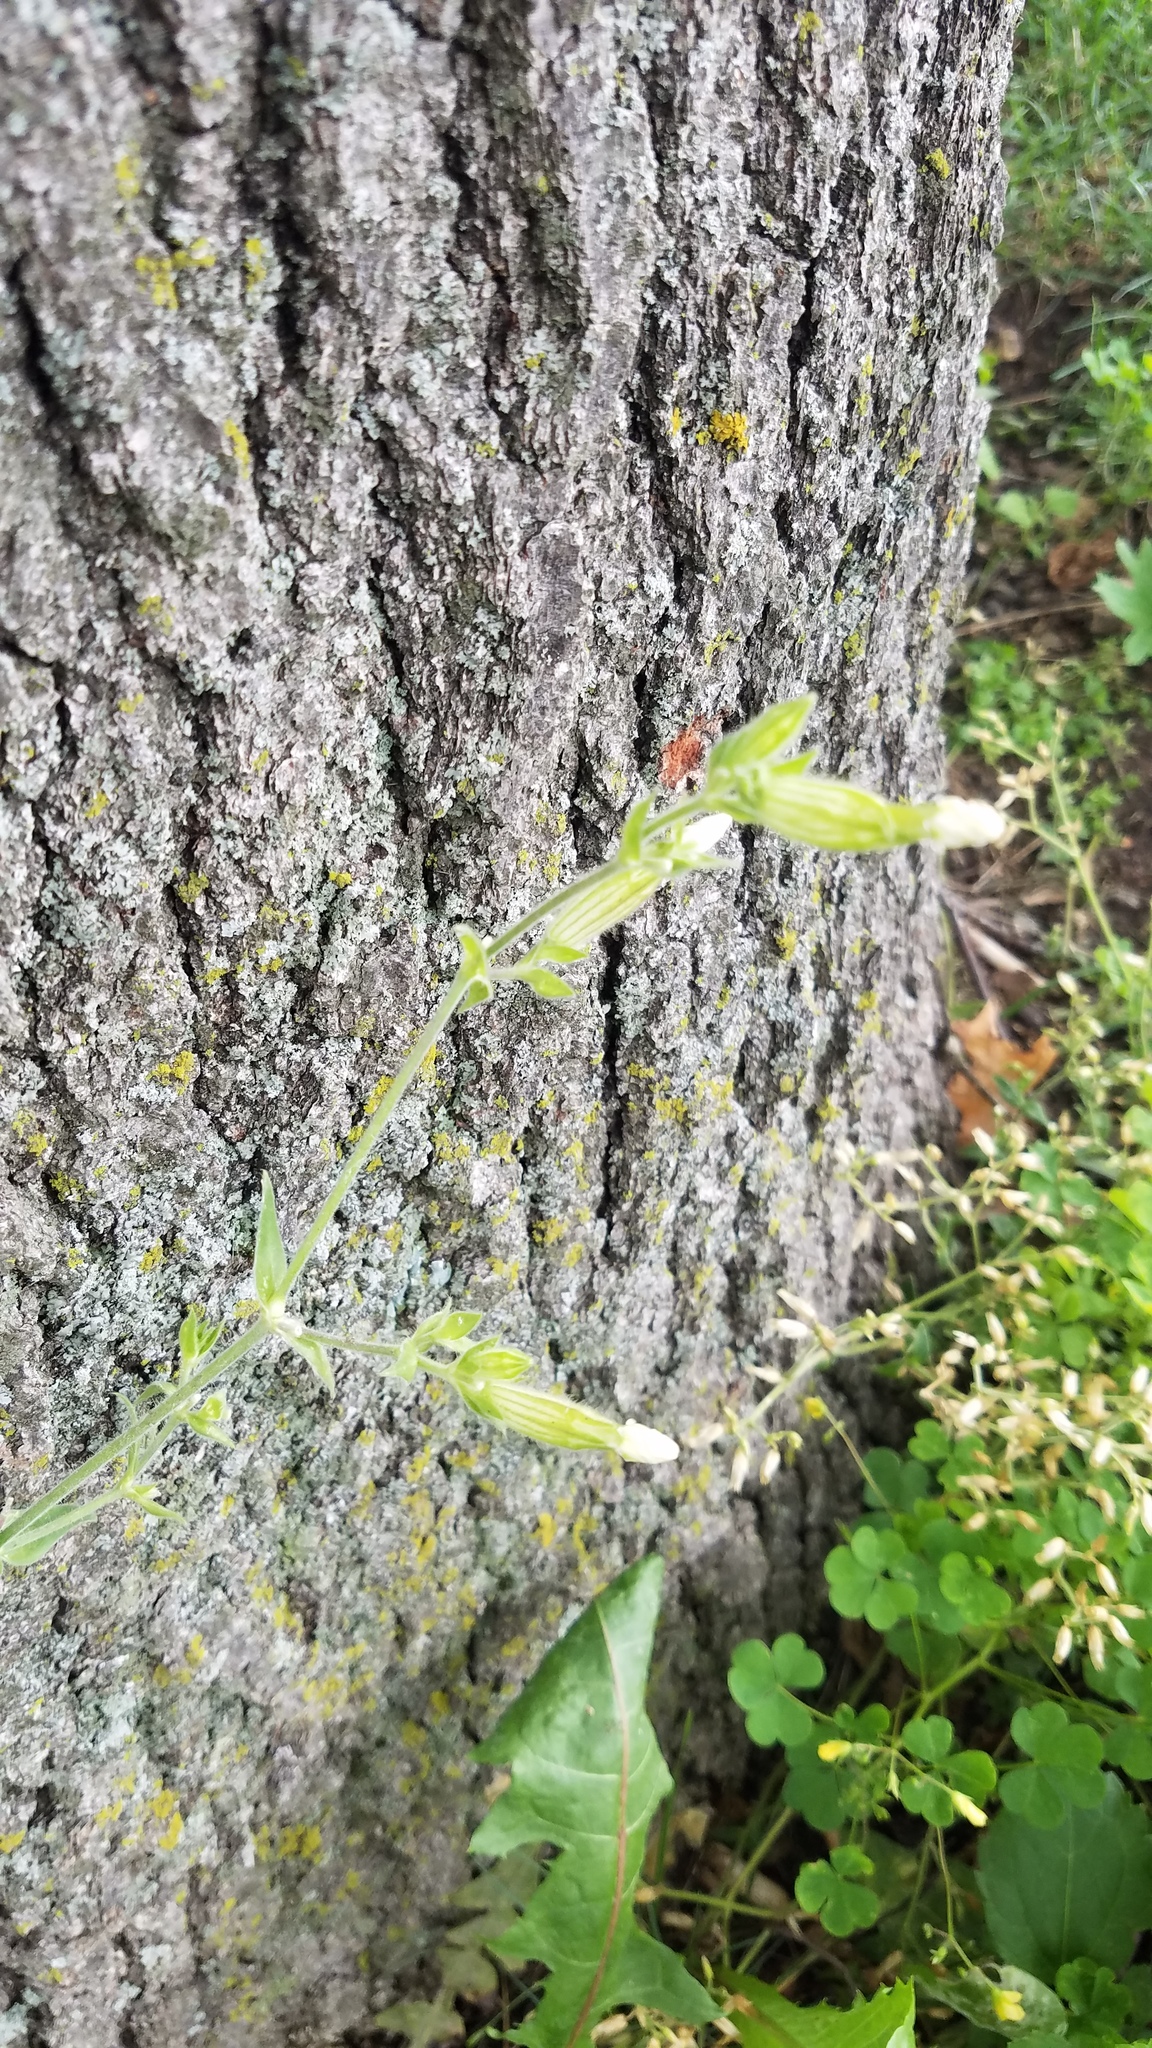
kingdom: Plantae
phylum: Tracheophyta
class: Magnoliopsida
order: Caryophyllales
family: Caryophyllaceae
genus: Silene
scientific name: Silene latifolia
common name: White campion
